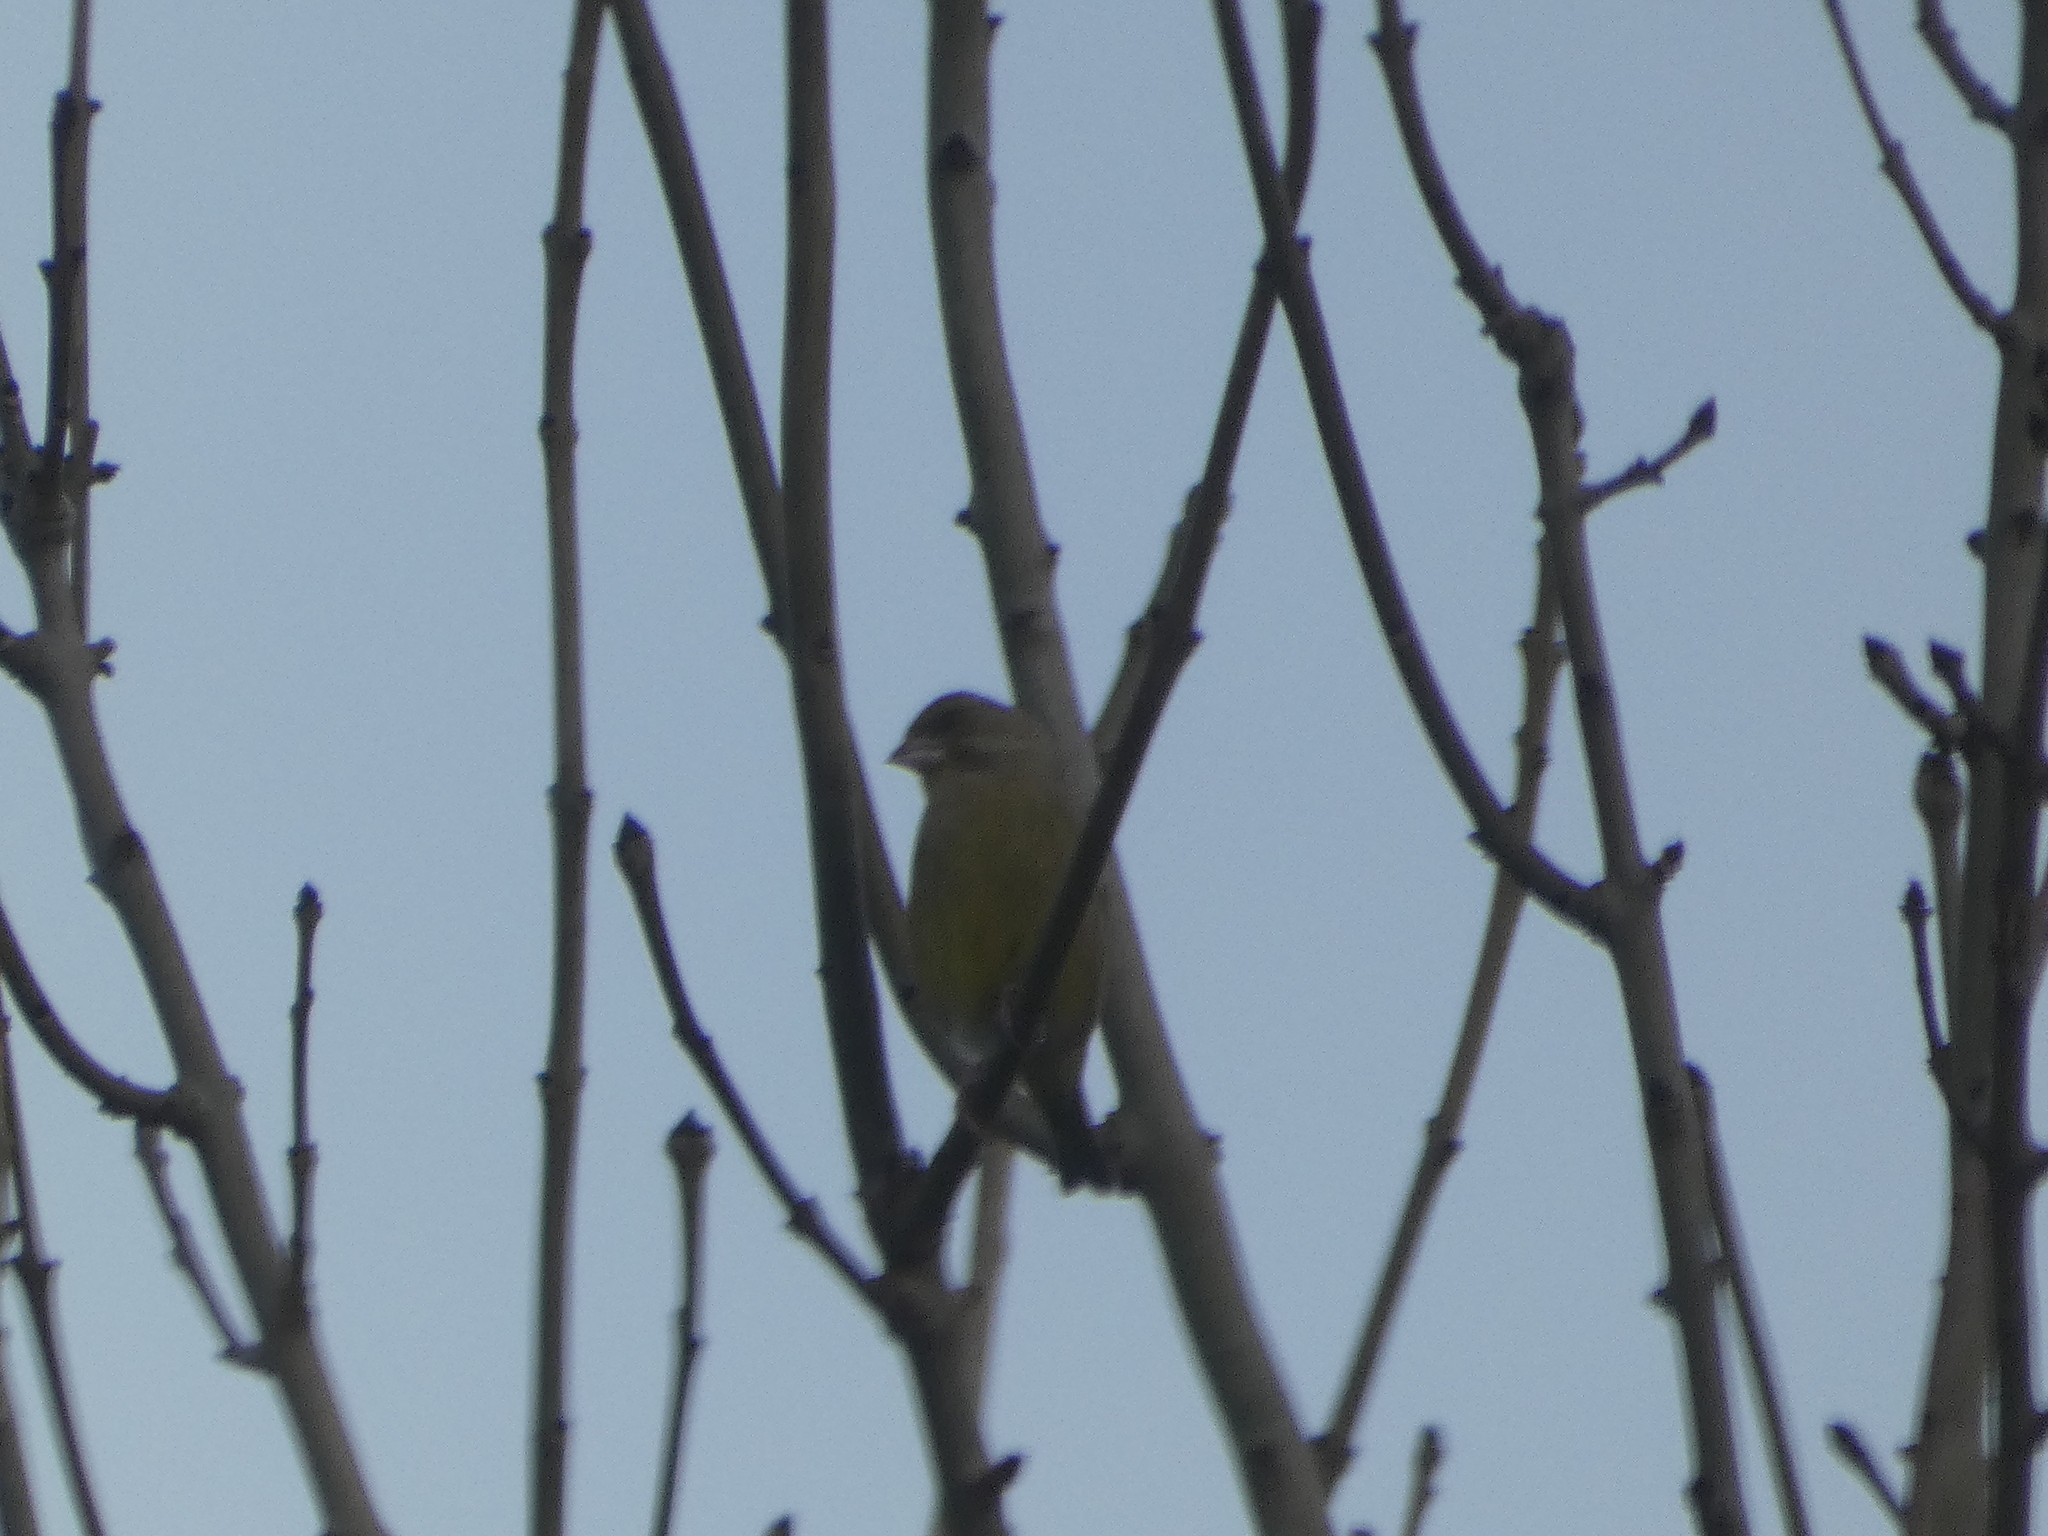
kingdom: Plantae
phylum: Tracheophyta
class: Liliopsida
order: Poales
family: Poaceae
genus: Chloris
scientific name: Chloris chloris
